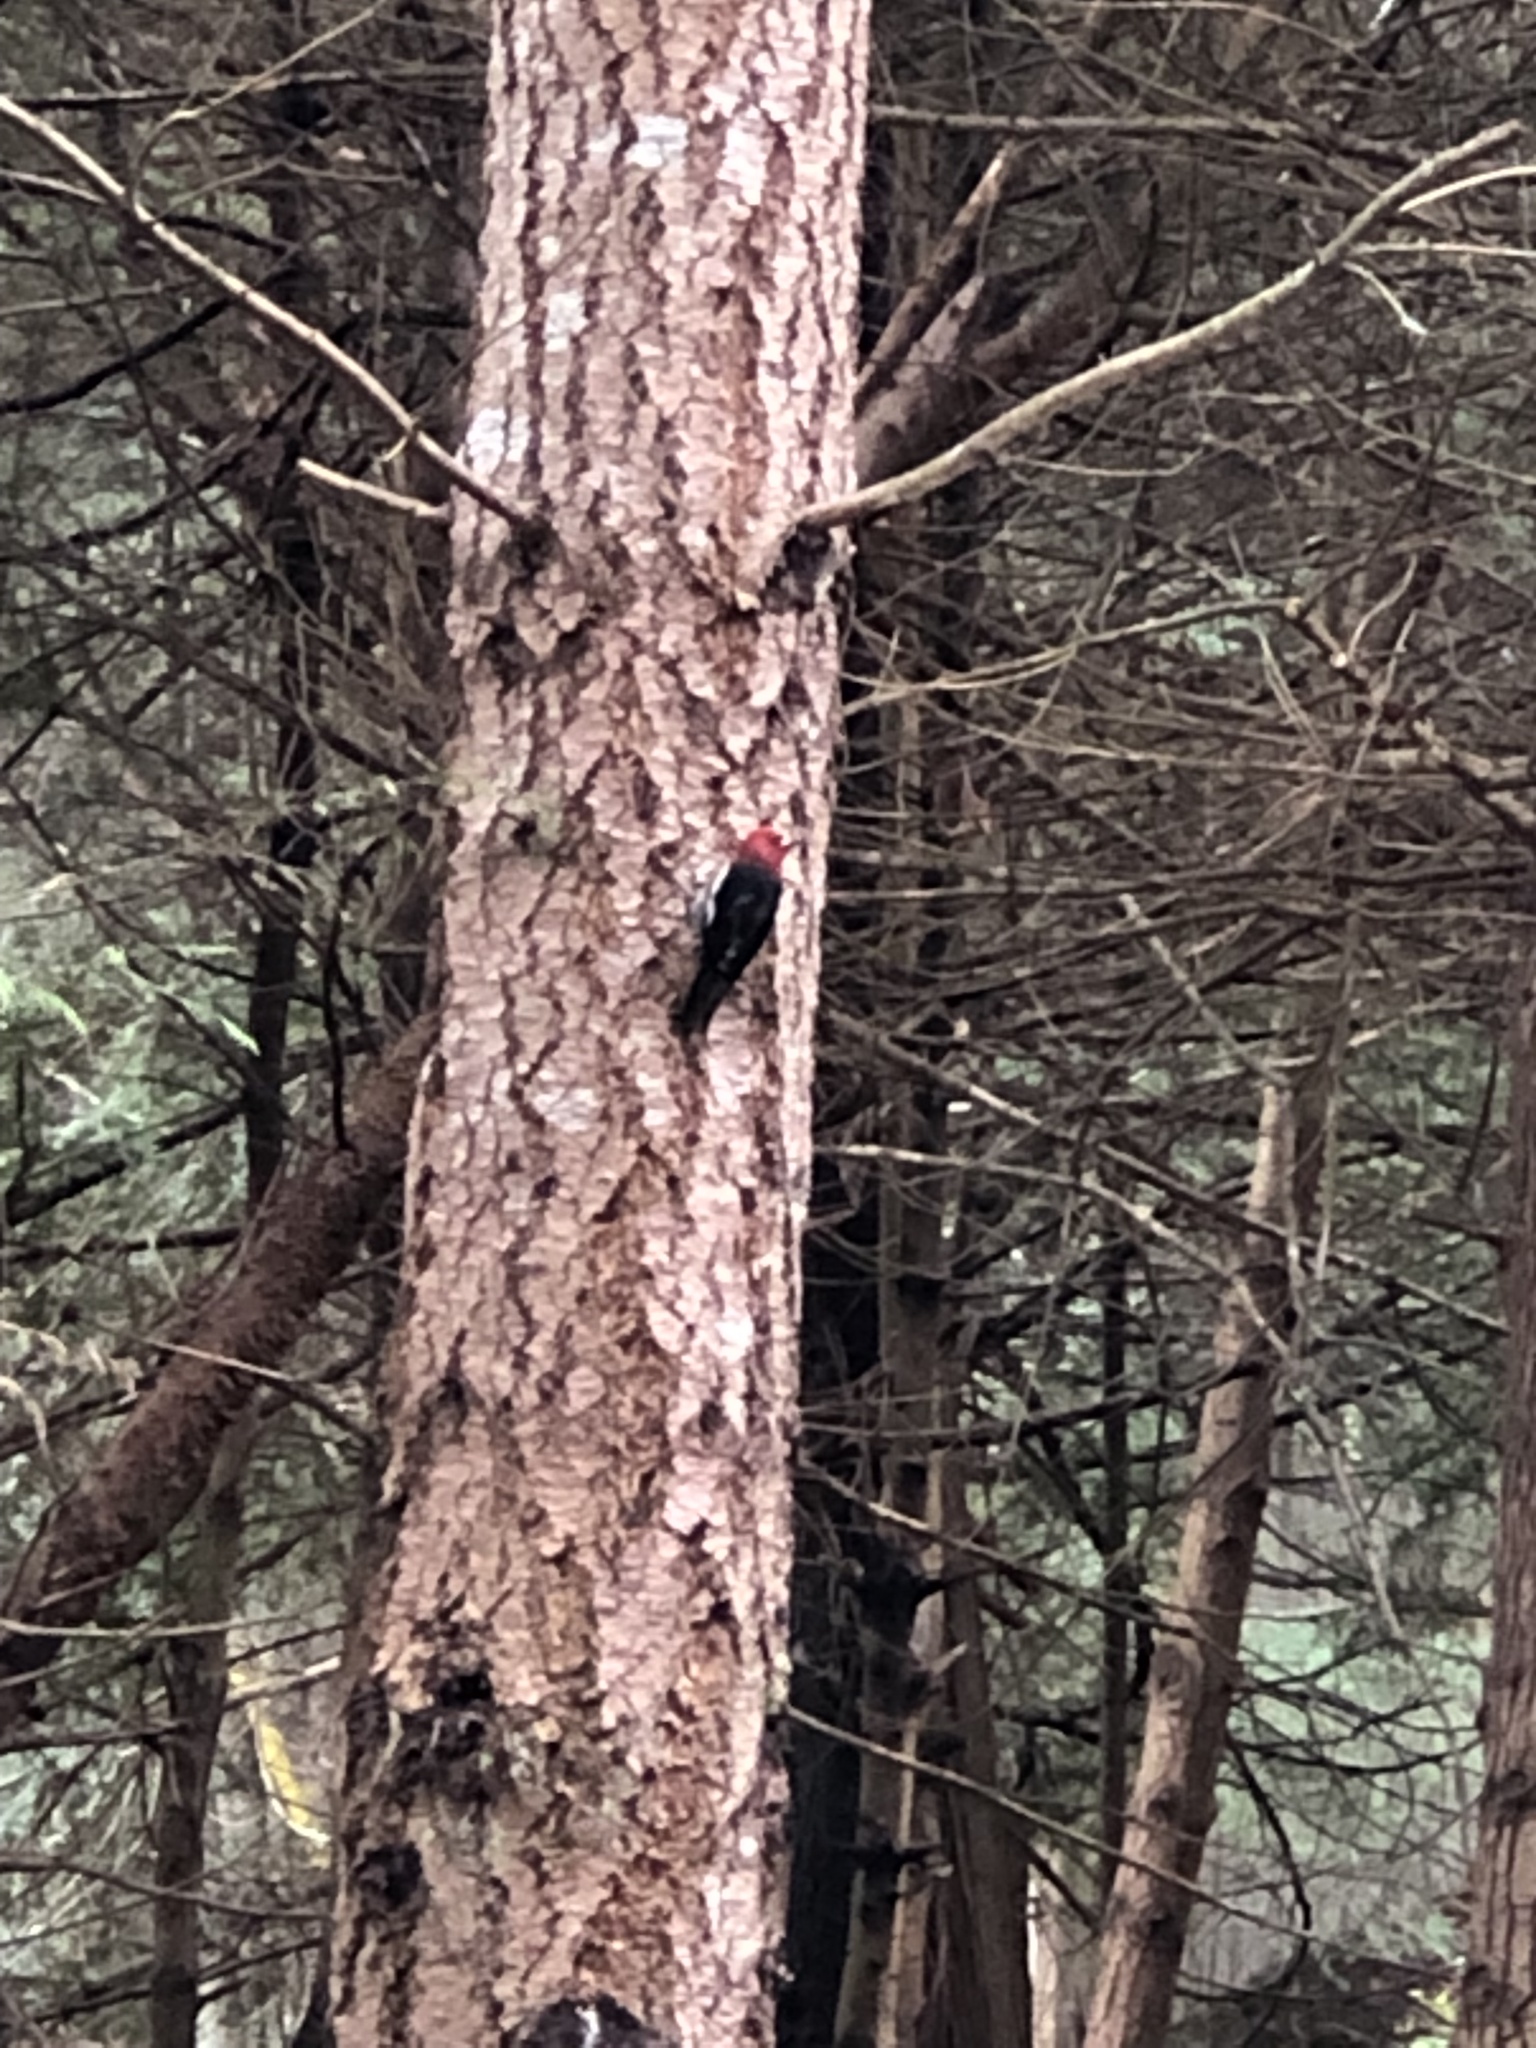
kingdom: Animalia
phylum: Chordata
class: Aves
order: Piciformes
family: Picidae
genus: Sphyrapicus
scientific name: Sphyrapicus ruber
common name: Red-breasted sapsucker
